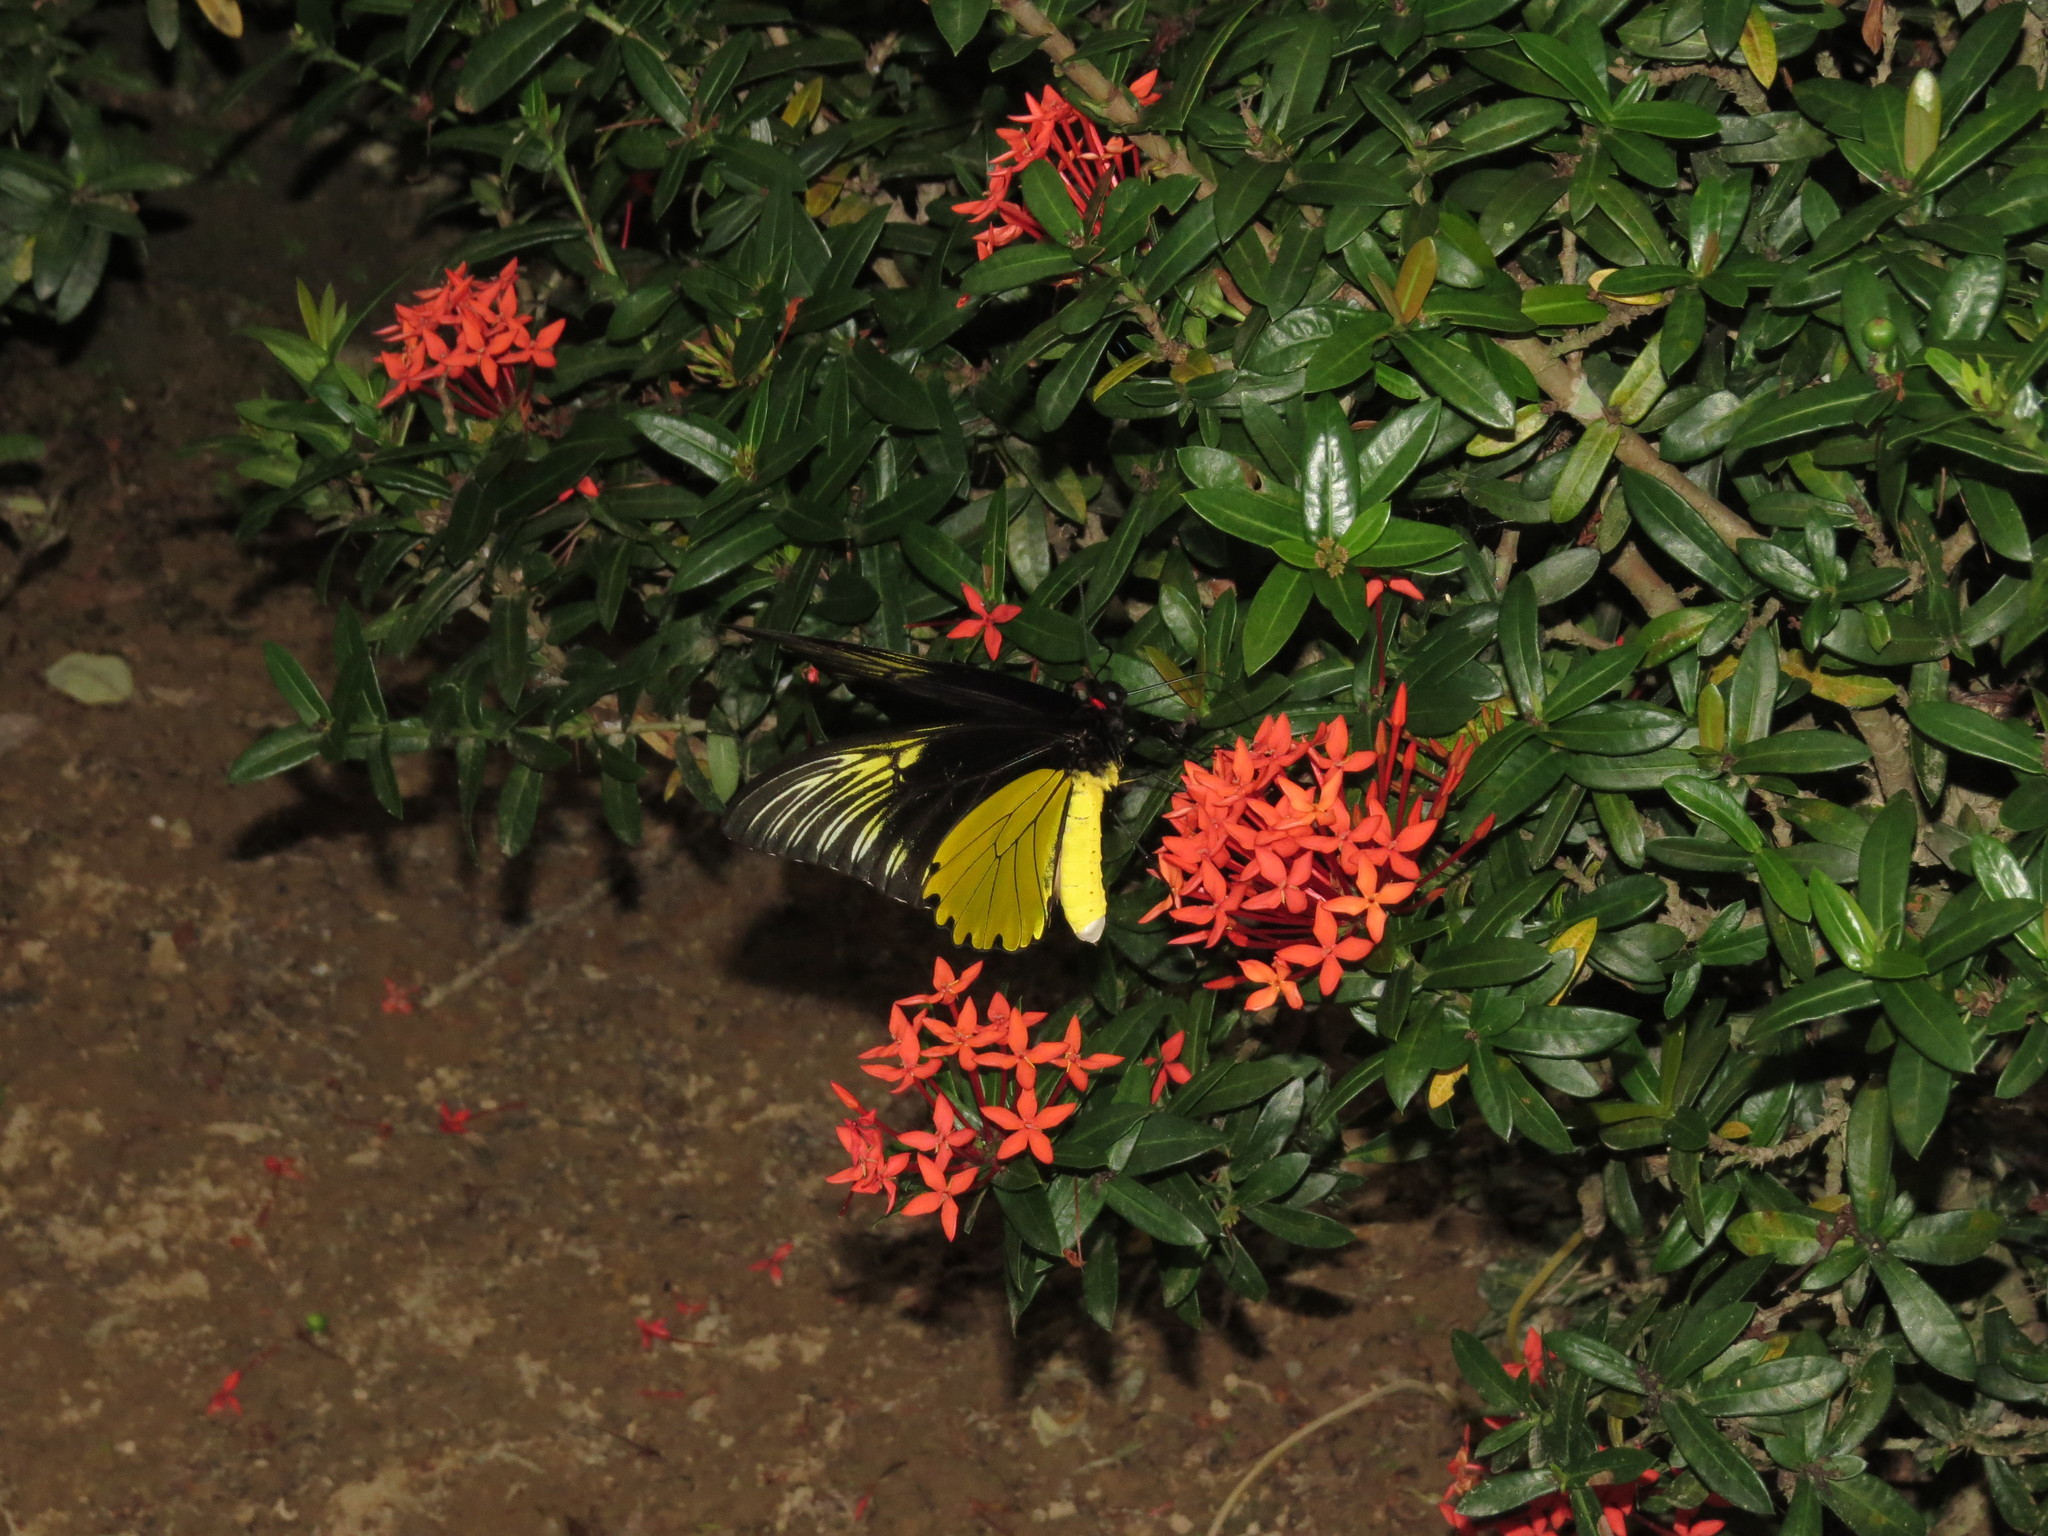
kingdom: Animalia
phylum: Arthropoda
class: Insecta
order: Lepidoptera
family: Papilionidae
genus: Troides
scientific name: Troides aeacus
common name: Golden birdwing
